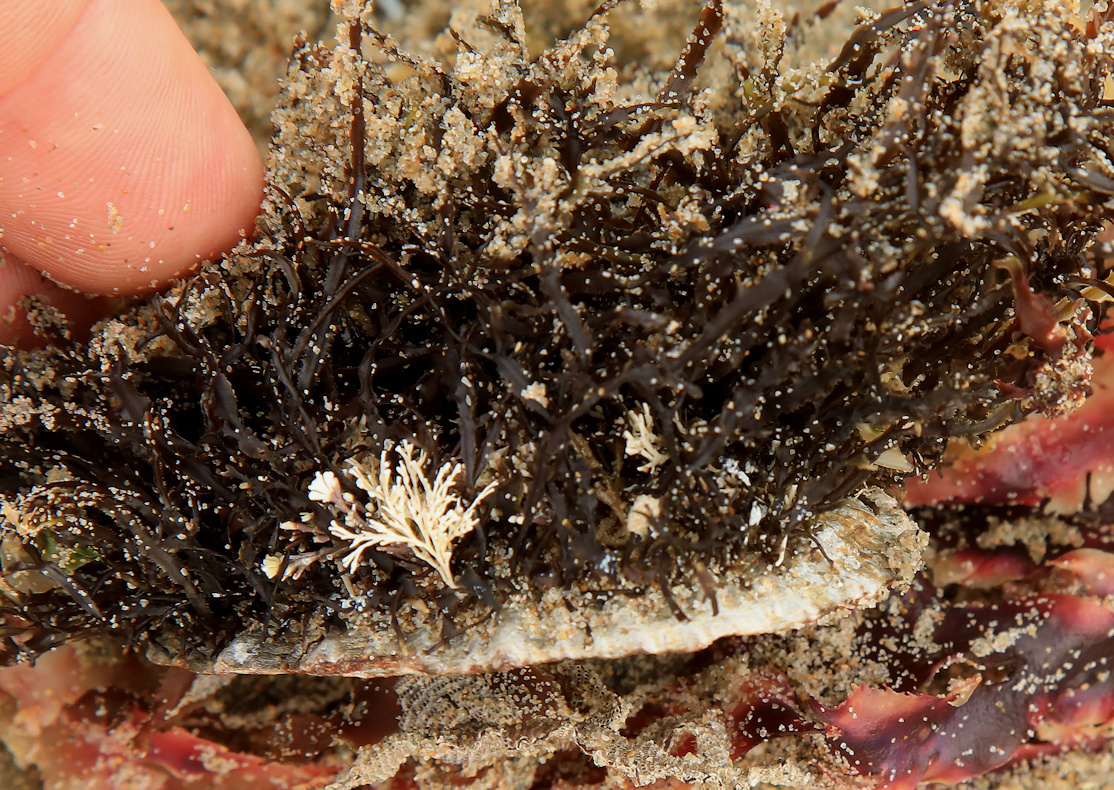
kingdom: Animalia
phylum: Mollusca
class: Gastropoda
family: Patellidae
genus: Cymbula
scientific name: Cymbula oculus
